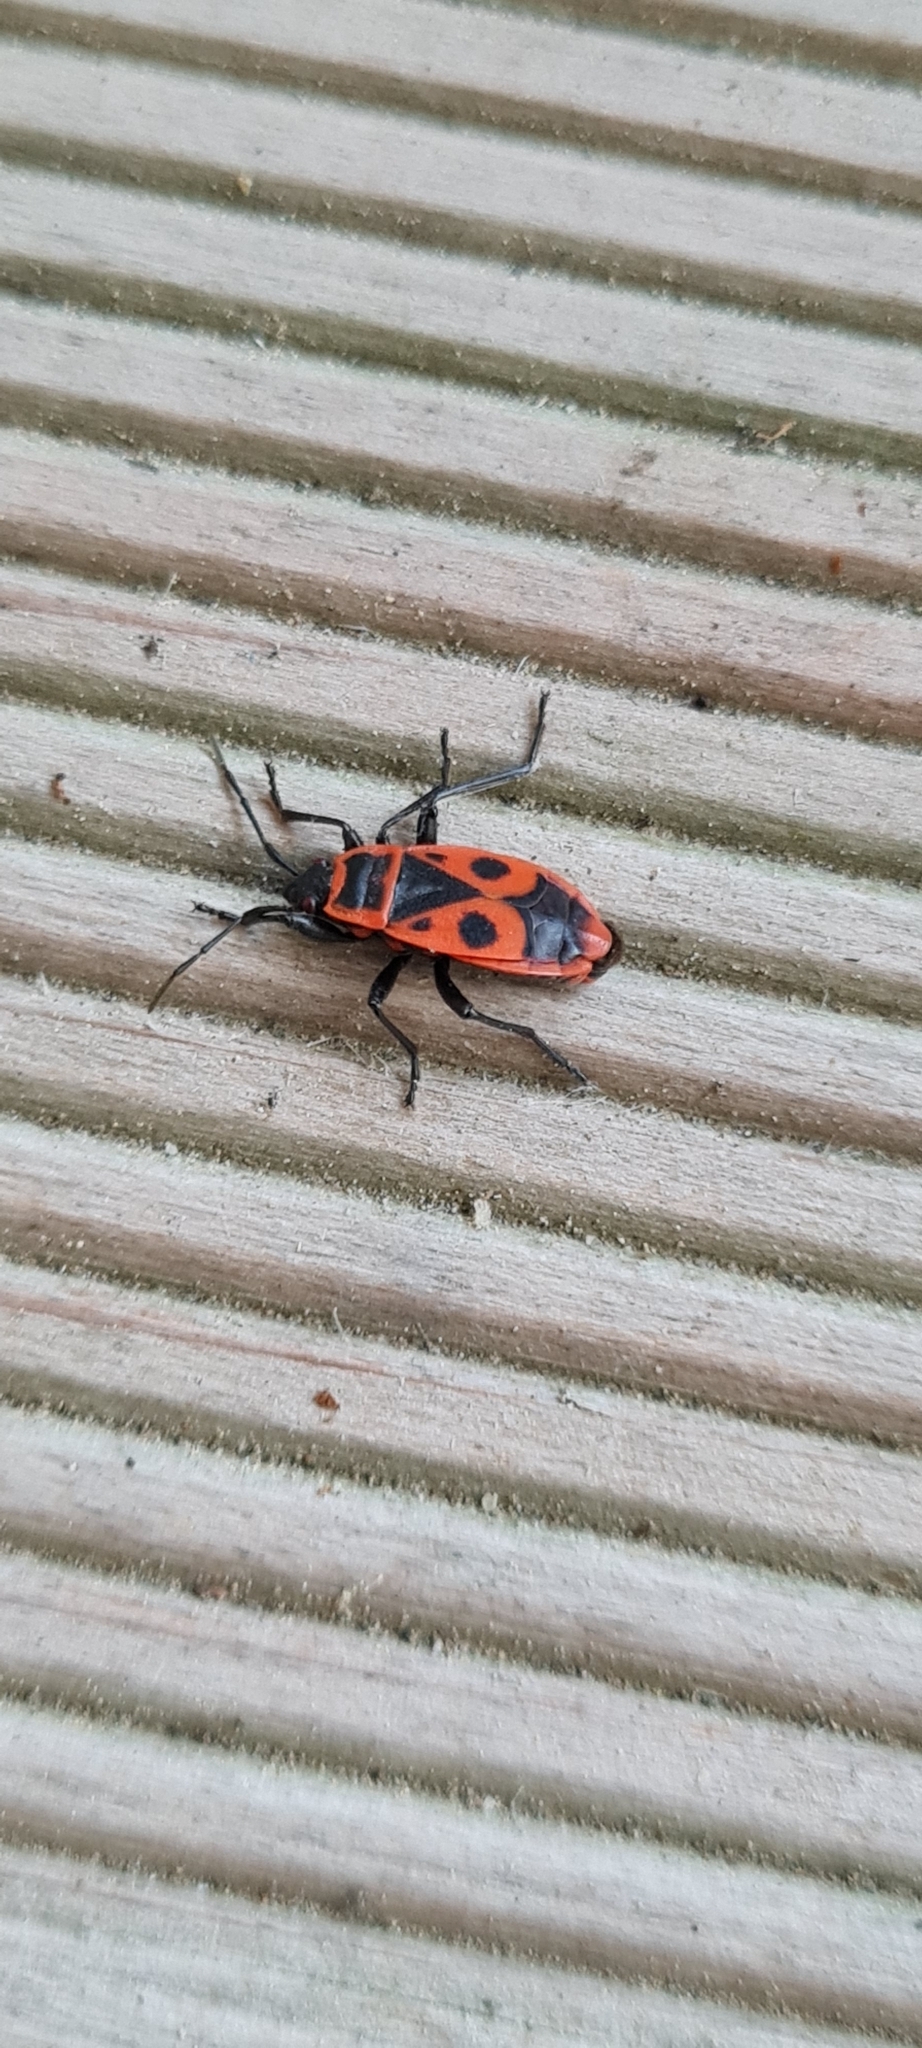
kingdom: Animalia
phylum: Arthropoda
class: Insecta
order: Hemiptera
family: Pyrrhocoridae
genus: Pyrrhocoris
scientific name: Pyrrhocoris apterus
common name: Firebug
